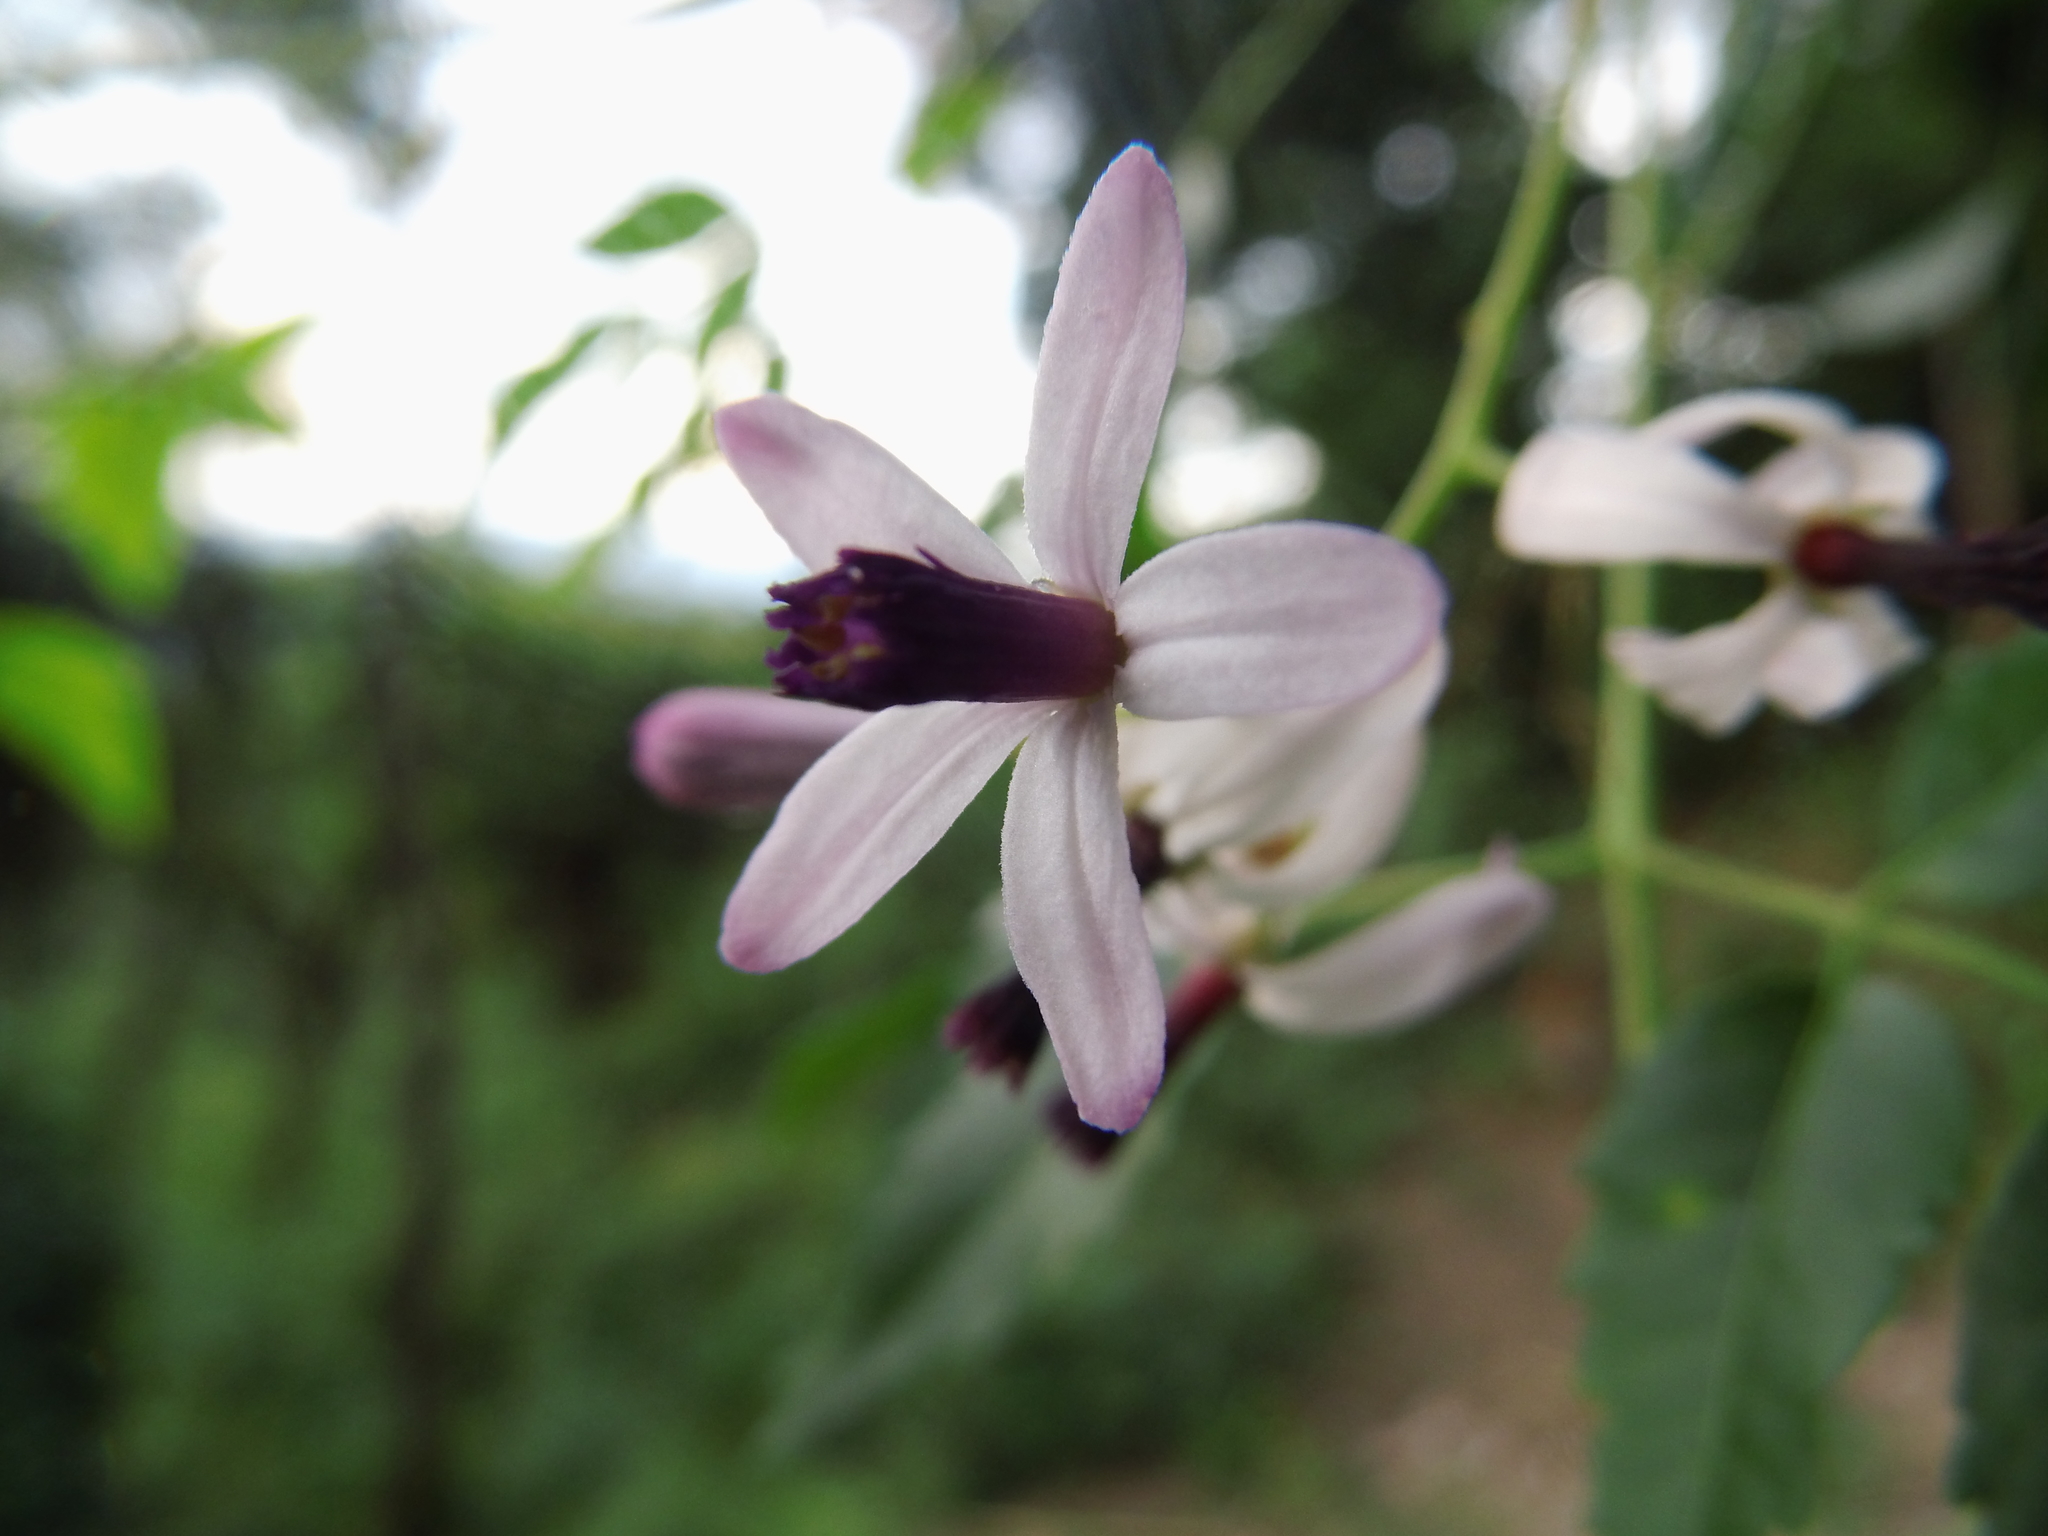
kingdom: Plantae
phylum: Tracheophyta
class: Magnoliopsida
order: Sapindales
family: Meliaceae
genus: Melia
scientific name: Melia azedarach
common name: Chinaberrytree
